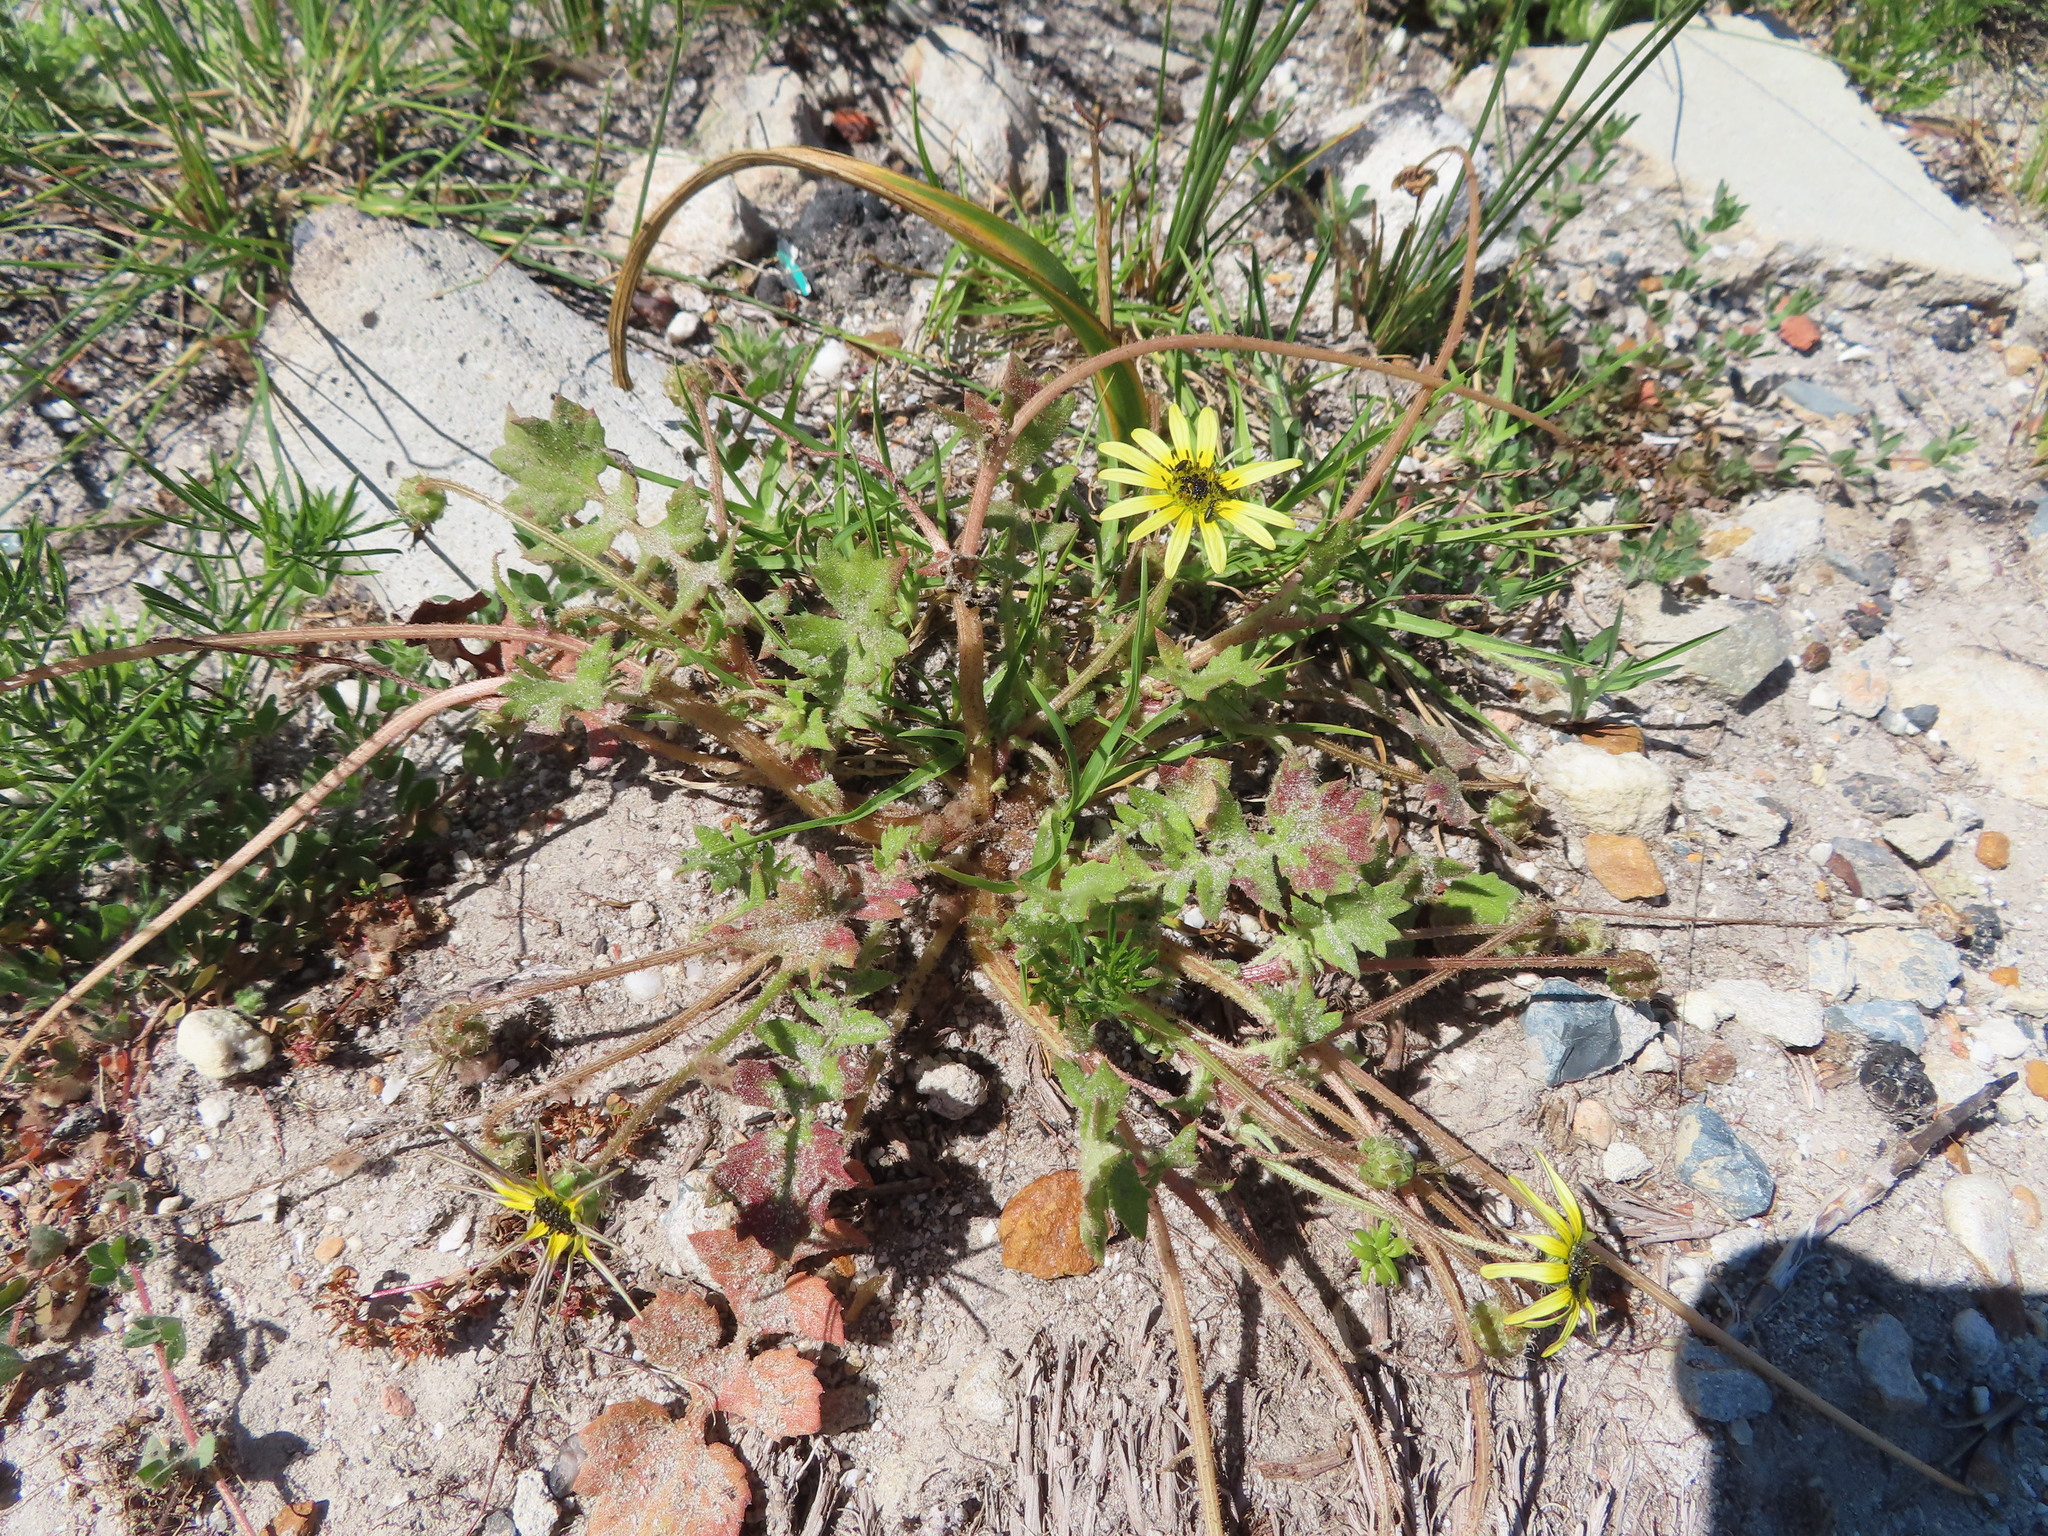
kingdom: Plantae
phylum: Tracheophyta
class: Magnoliopsida
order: Asterales
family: Asteraceae
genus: Arctotheca
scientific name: Arctotheca calendula
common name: Capeweed
